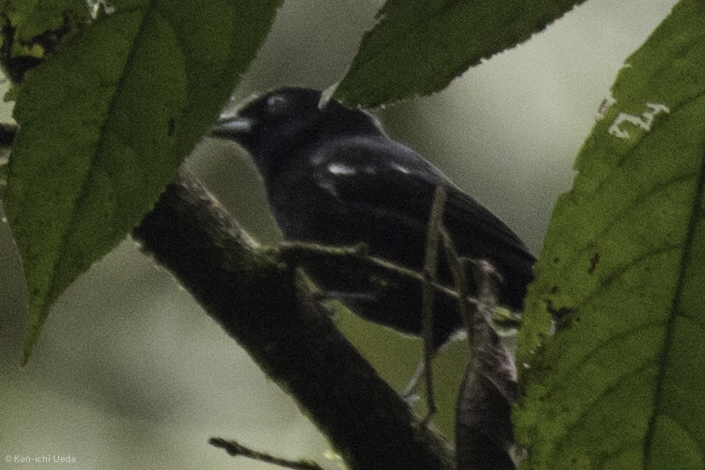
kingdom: Animalia
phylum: Chordata
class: Aves
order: Passeriformes
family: Thraupidae
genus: Loriotus
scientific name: Loriotus luctuosus
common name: White-shouldered tanager
